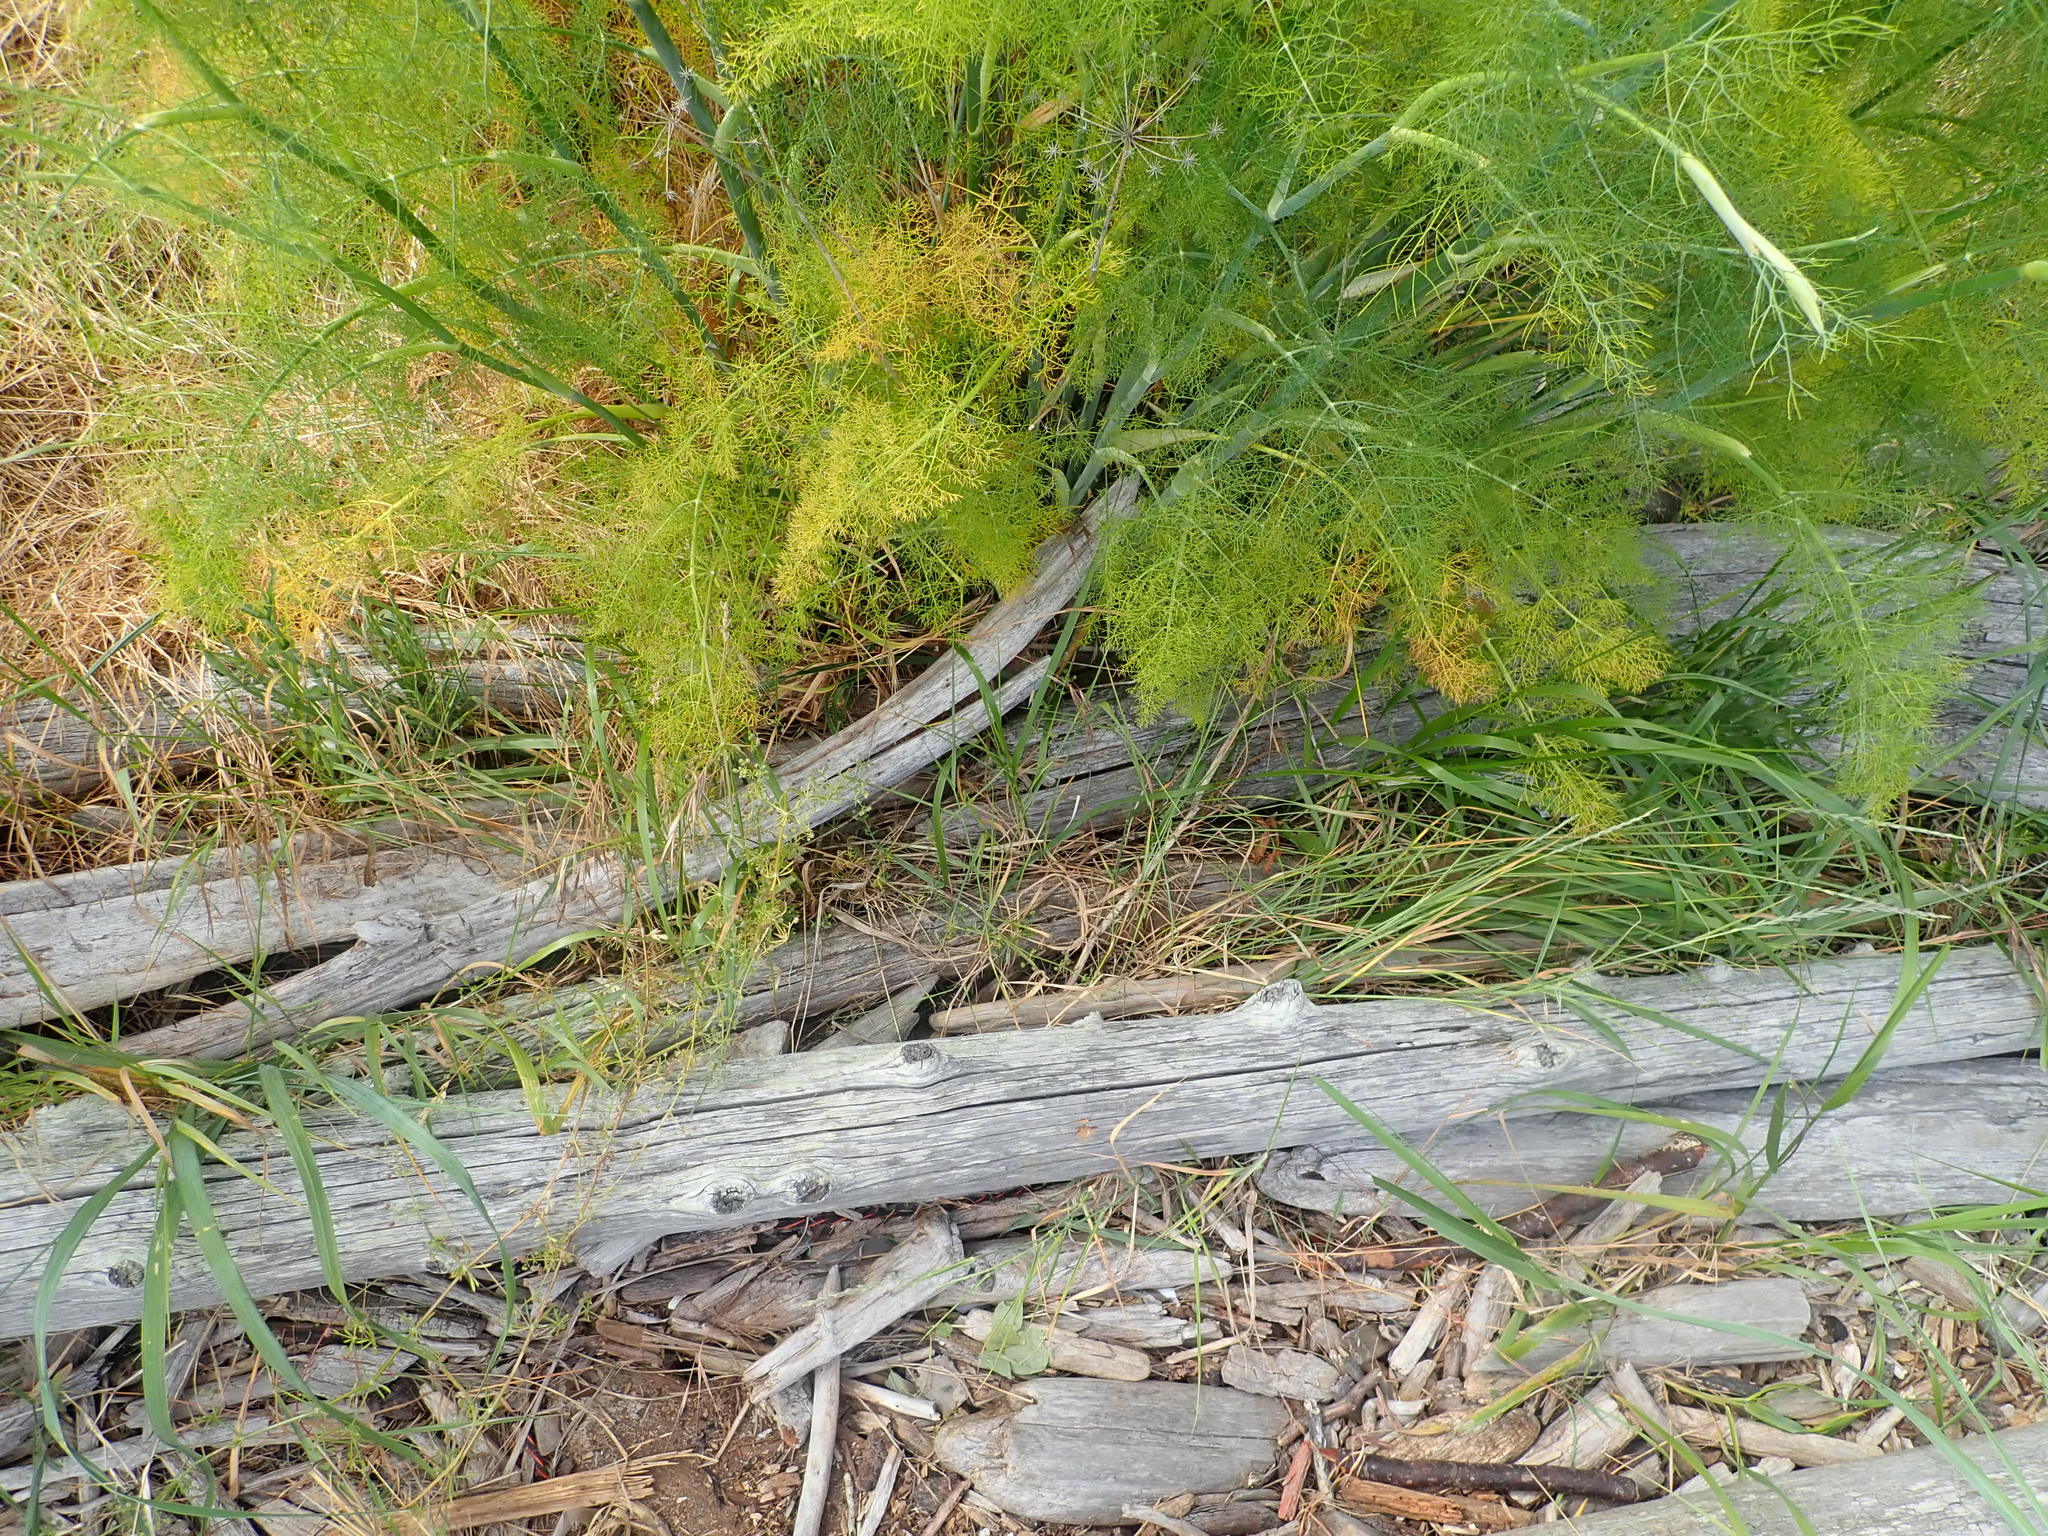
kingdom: Plantae
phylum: Tracheophyta
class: Magnoliopsida
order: Gentianales
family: Rubiaceae
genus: Galium
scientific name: Galium aparine
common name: Cleavers
